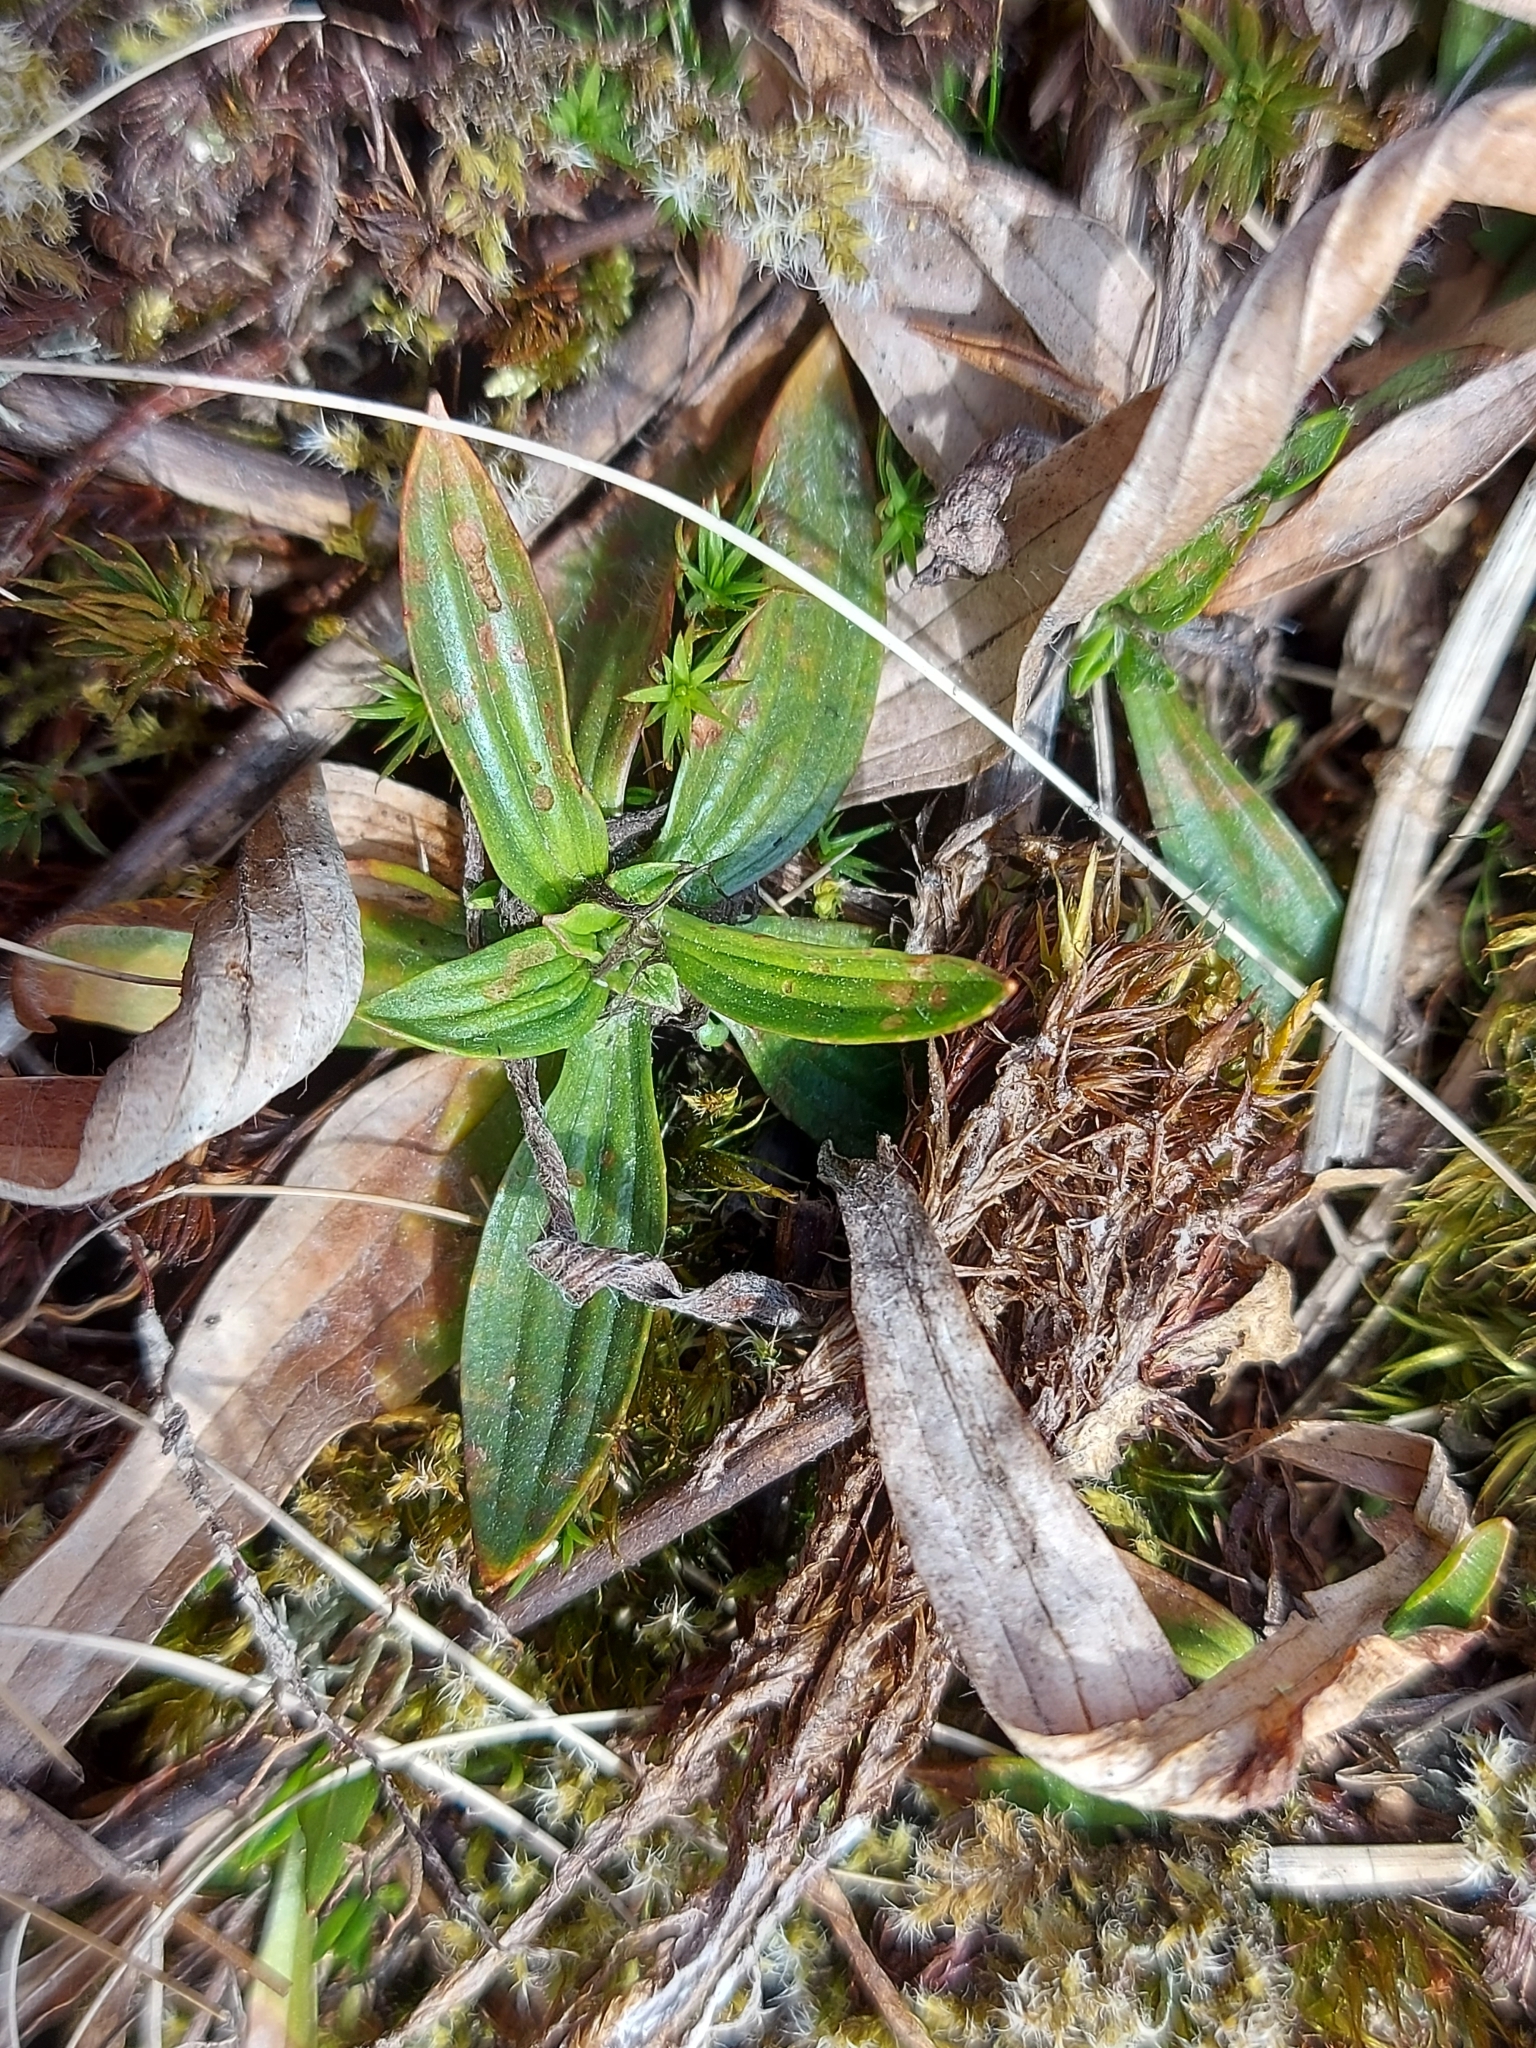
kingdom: Plantae
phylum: Tracheophyta
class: Magnoliopsida
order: Lamiales
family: Plantaginaceae
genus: Plantago
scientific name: Plantago lanceolata
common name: Ribwort plantain
